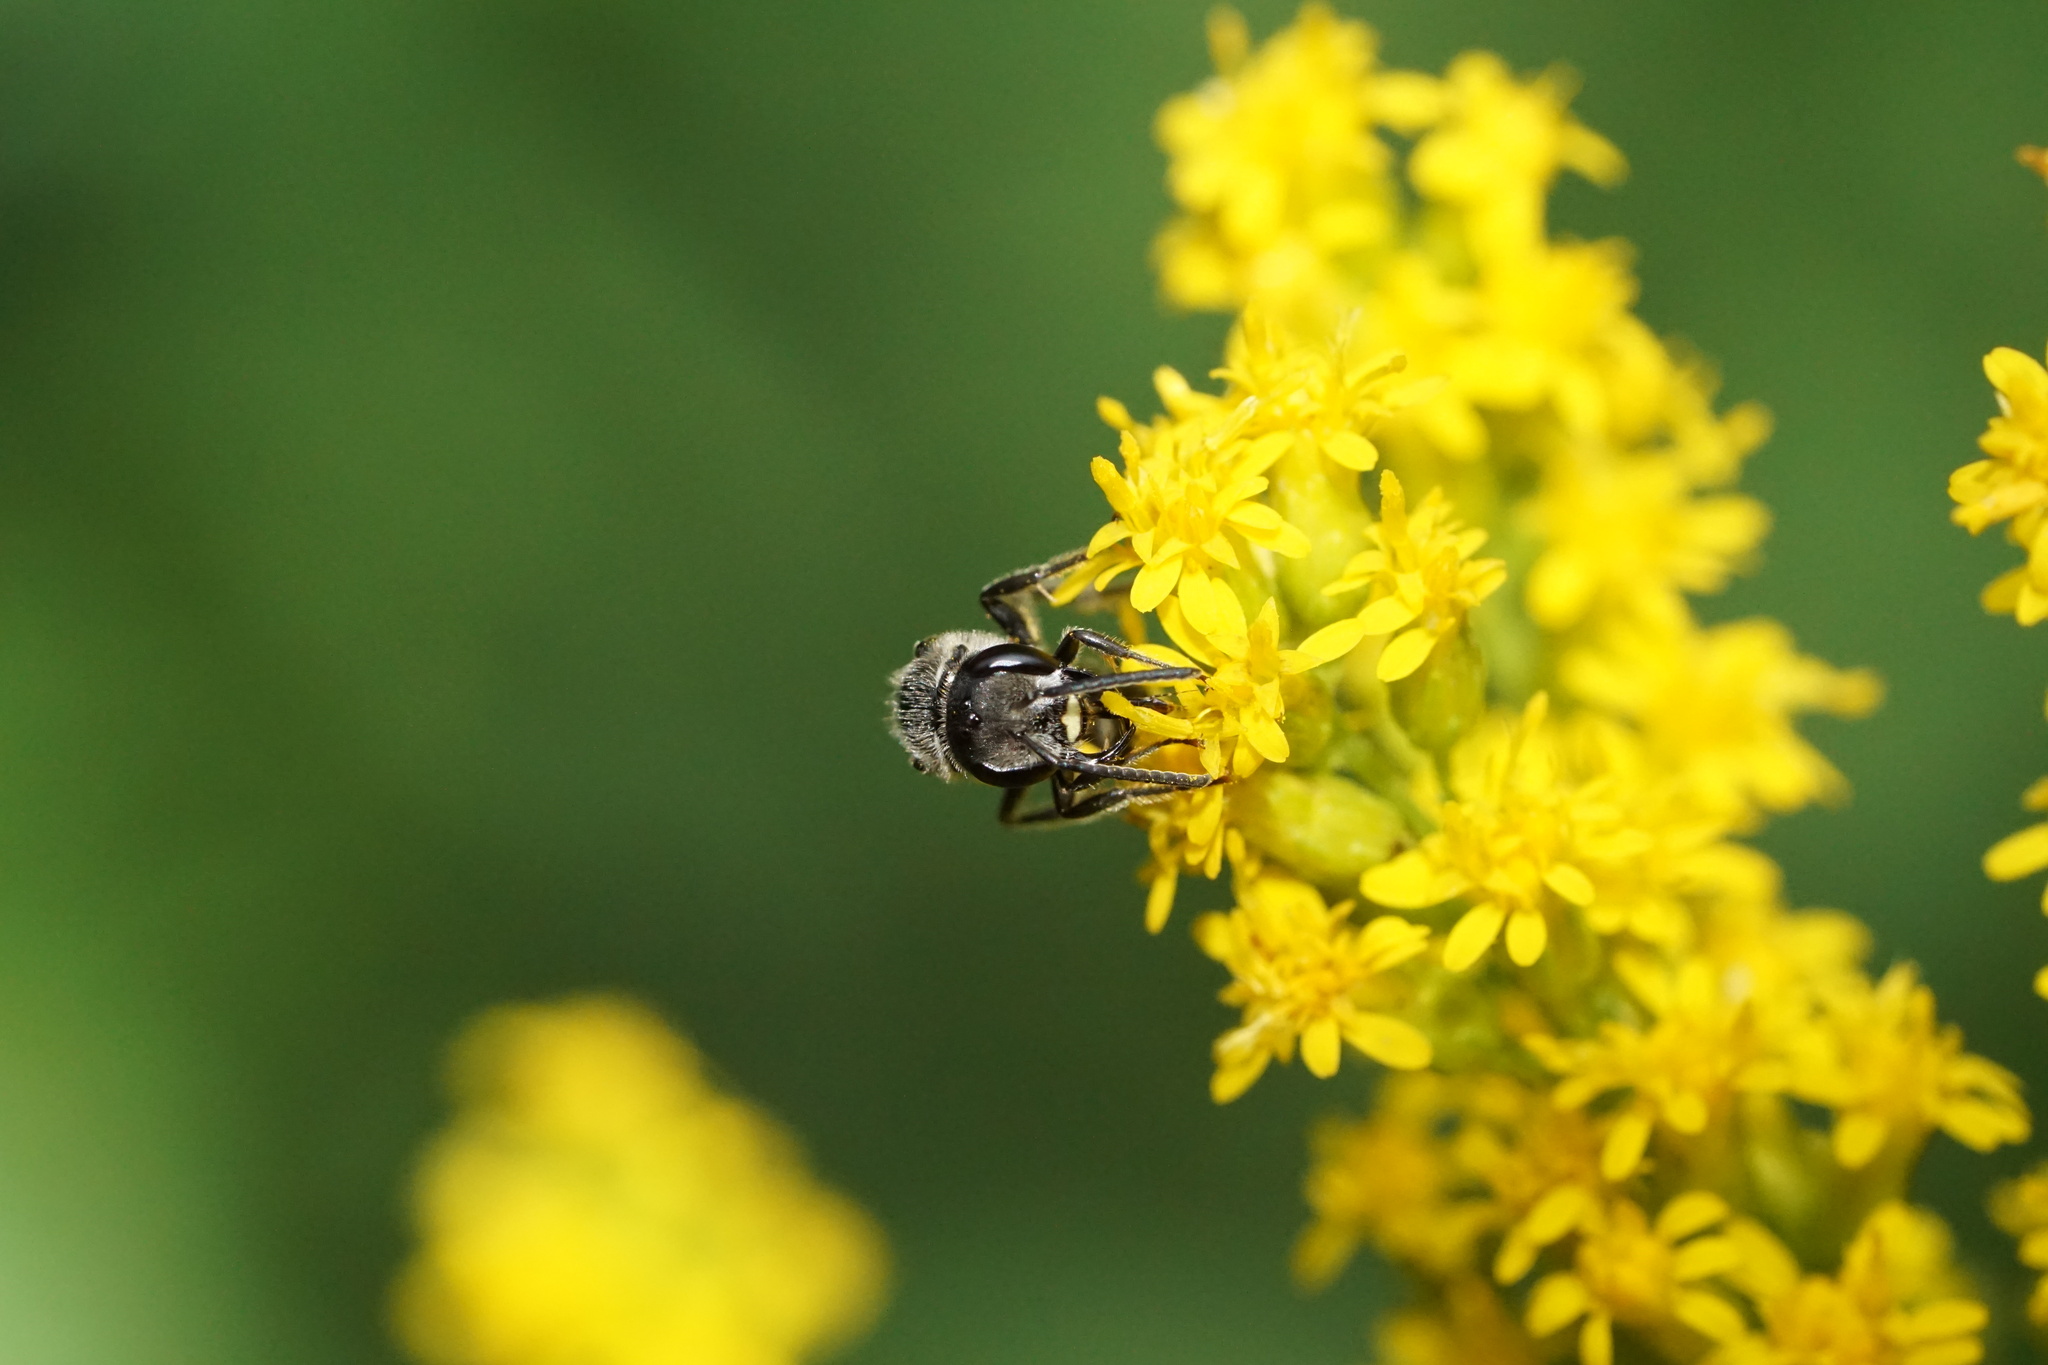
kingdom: Animalia
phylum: Arthropoda
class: Insecta
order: Hymenoptera
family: Halictidae
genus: Lasioglossum
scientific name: Lasioglossum coriaceum
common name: Leathery sweat bee
